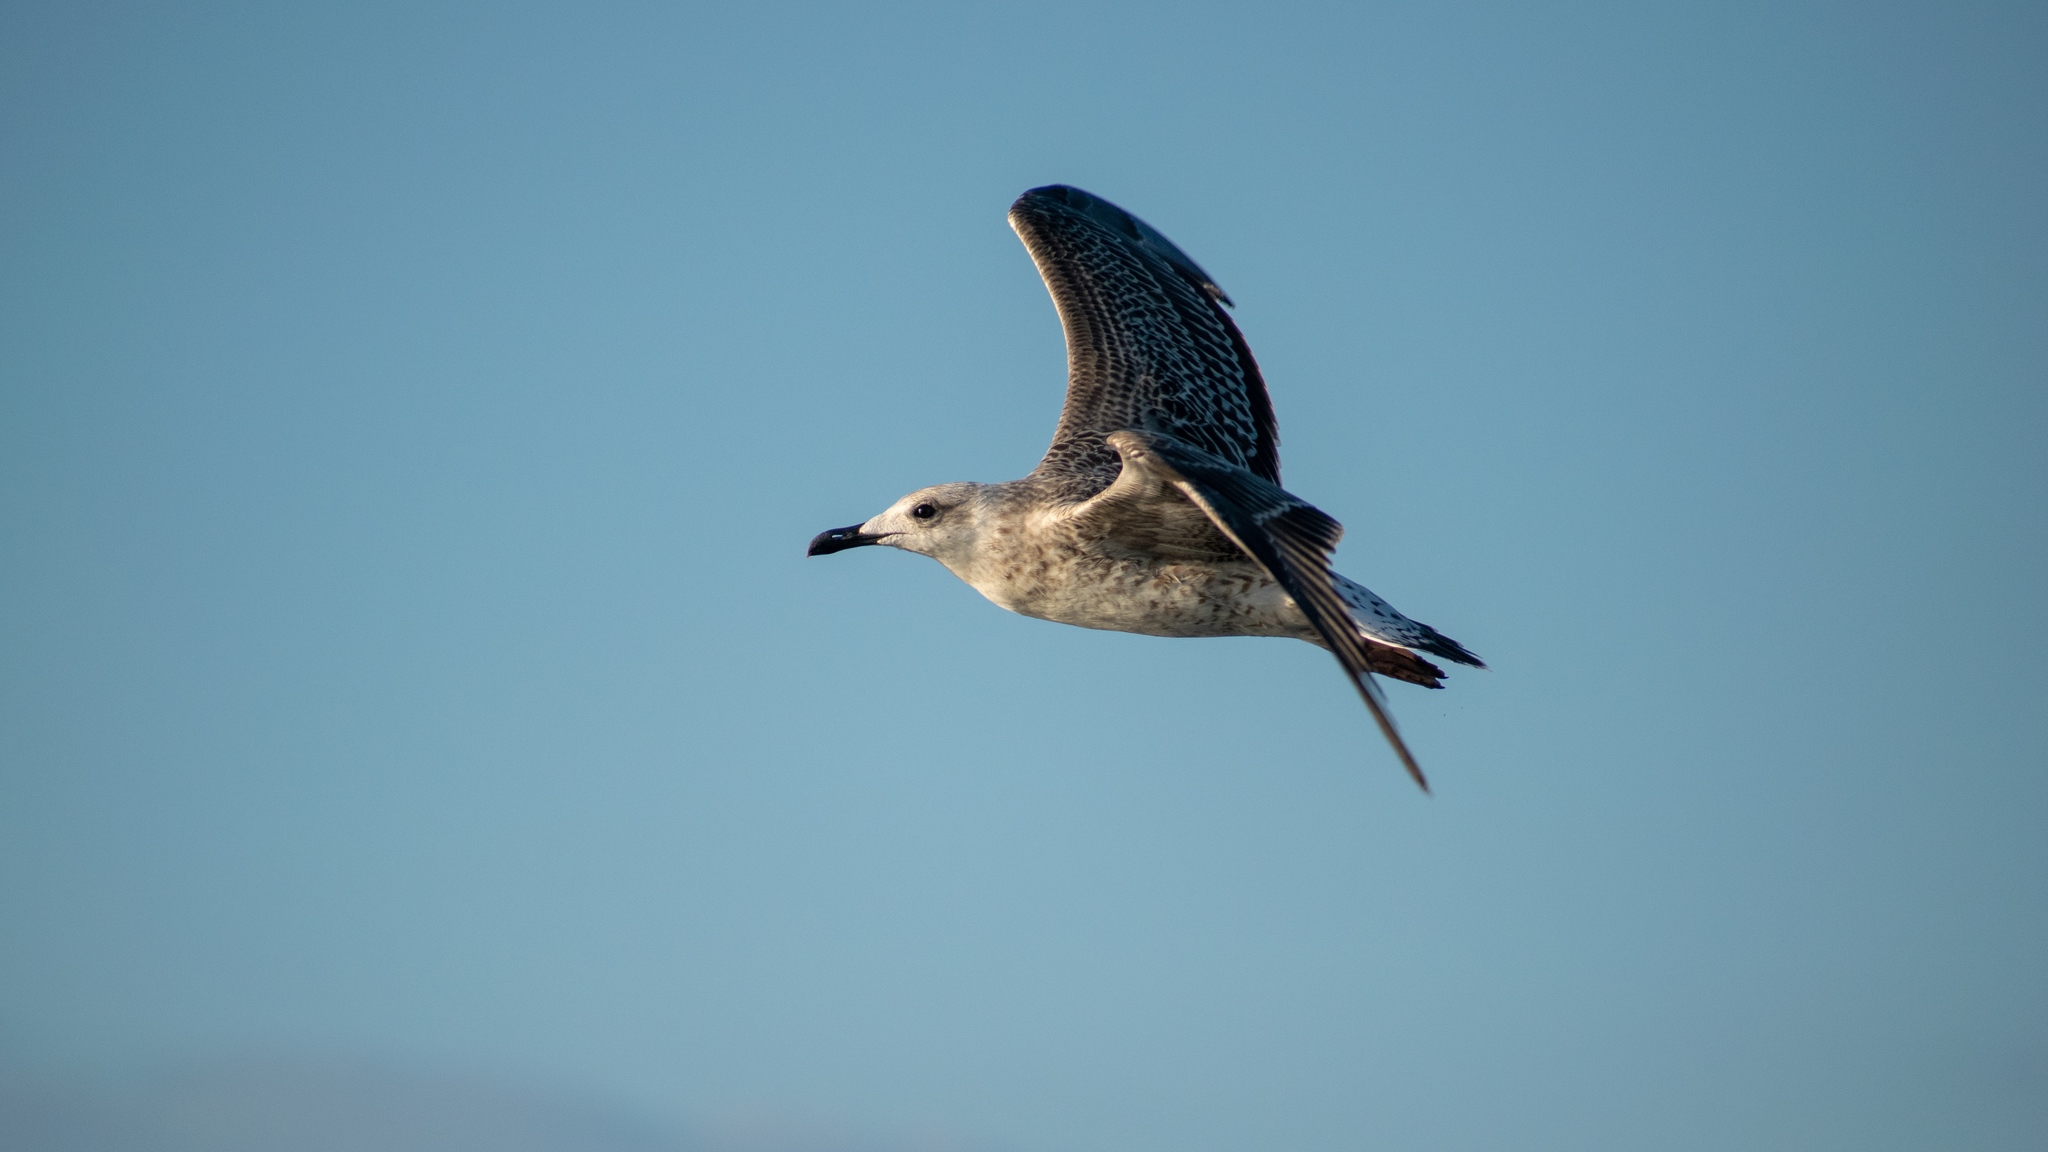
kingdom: Animalia
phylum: Chordata
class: Aves
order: Charadriiformes
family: Laridae
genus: Larus
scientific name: Larus michahellis
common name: Yellow-legged gull
